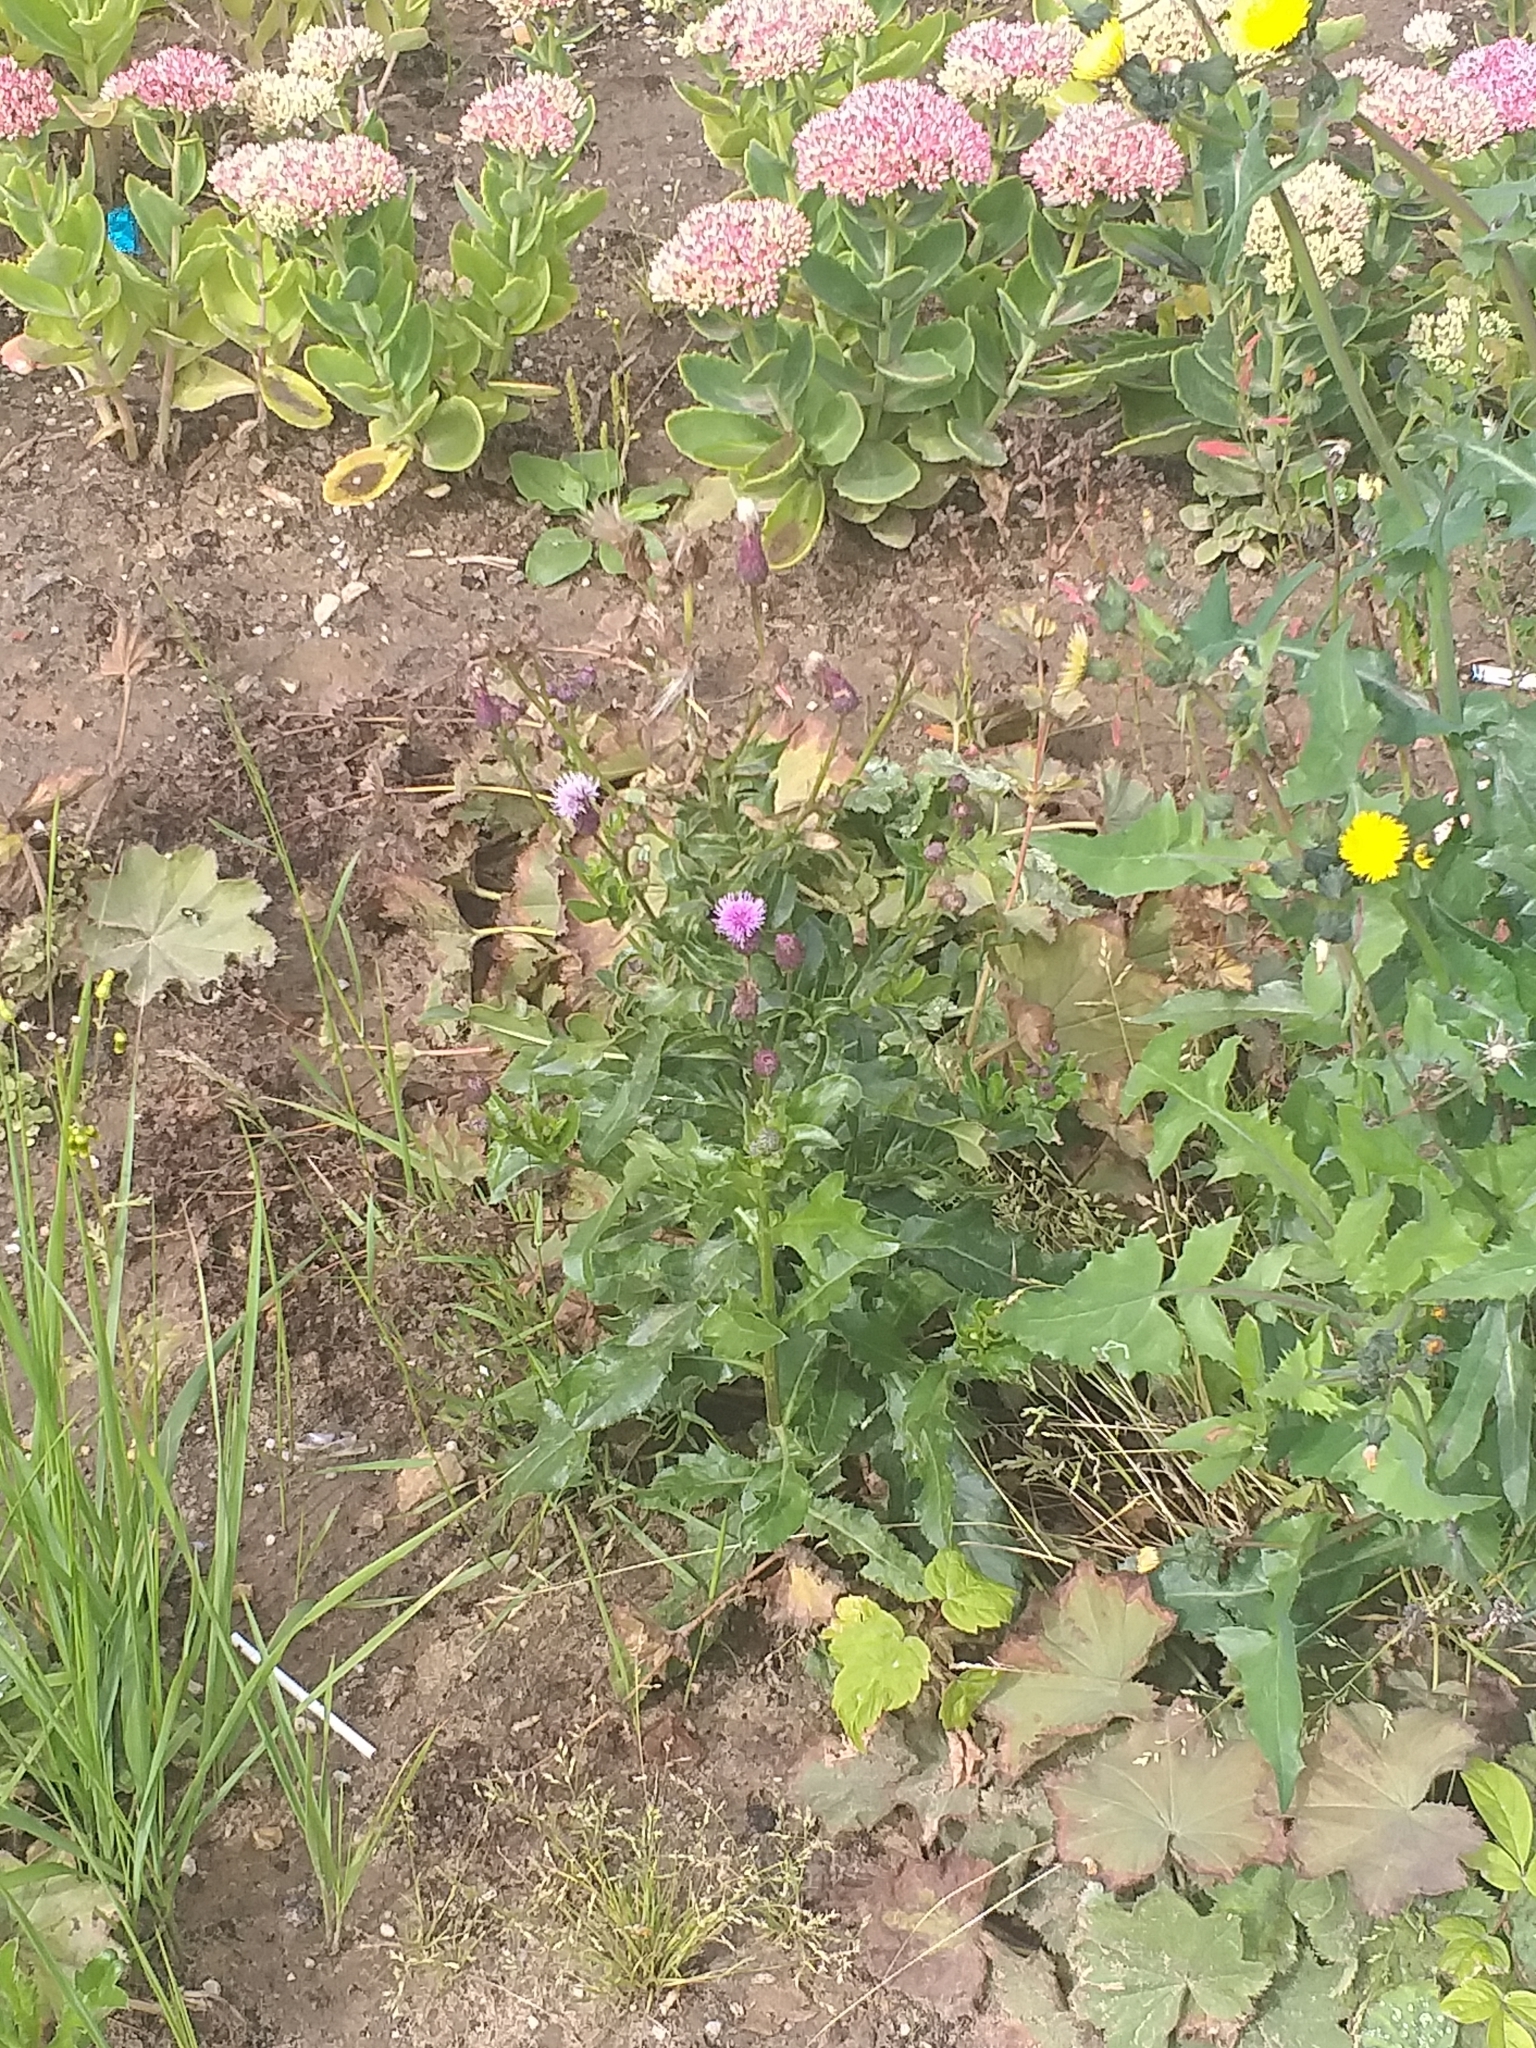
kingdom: Plantae
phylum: Tracheophyta
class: Magnoliopsida
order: Asterales
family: Asteraceae
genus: Cirsium
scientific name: Cirsium arvense
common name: Creeping thistle
